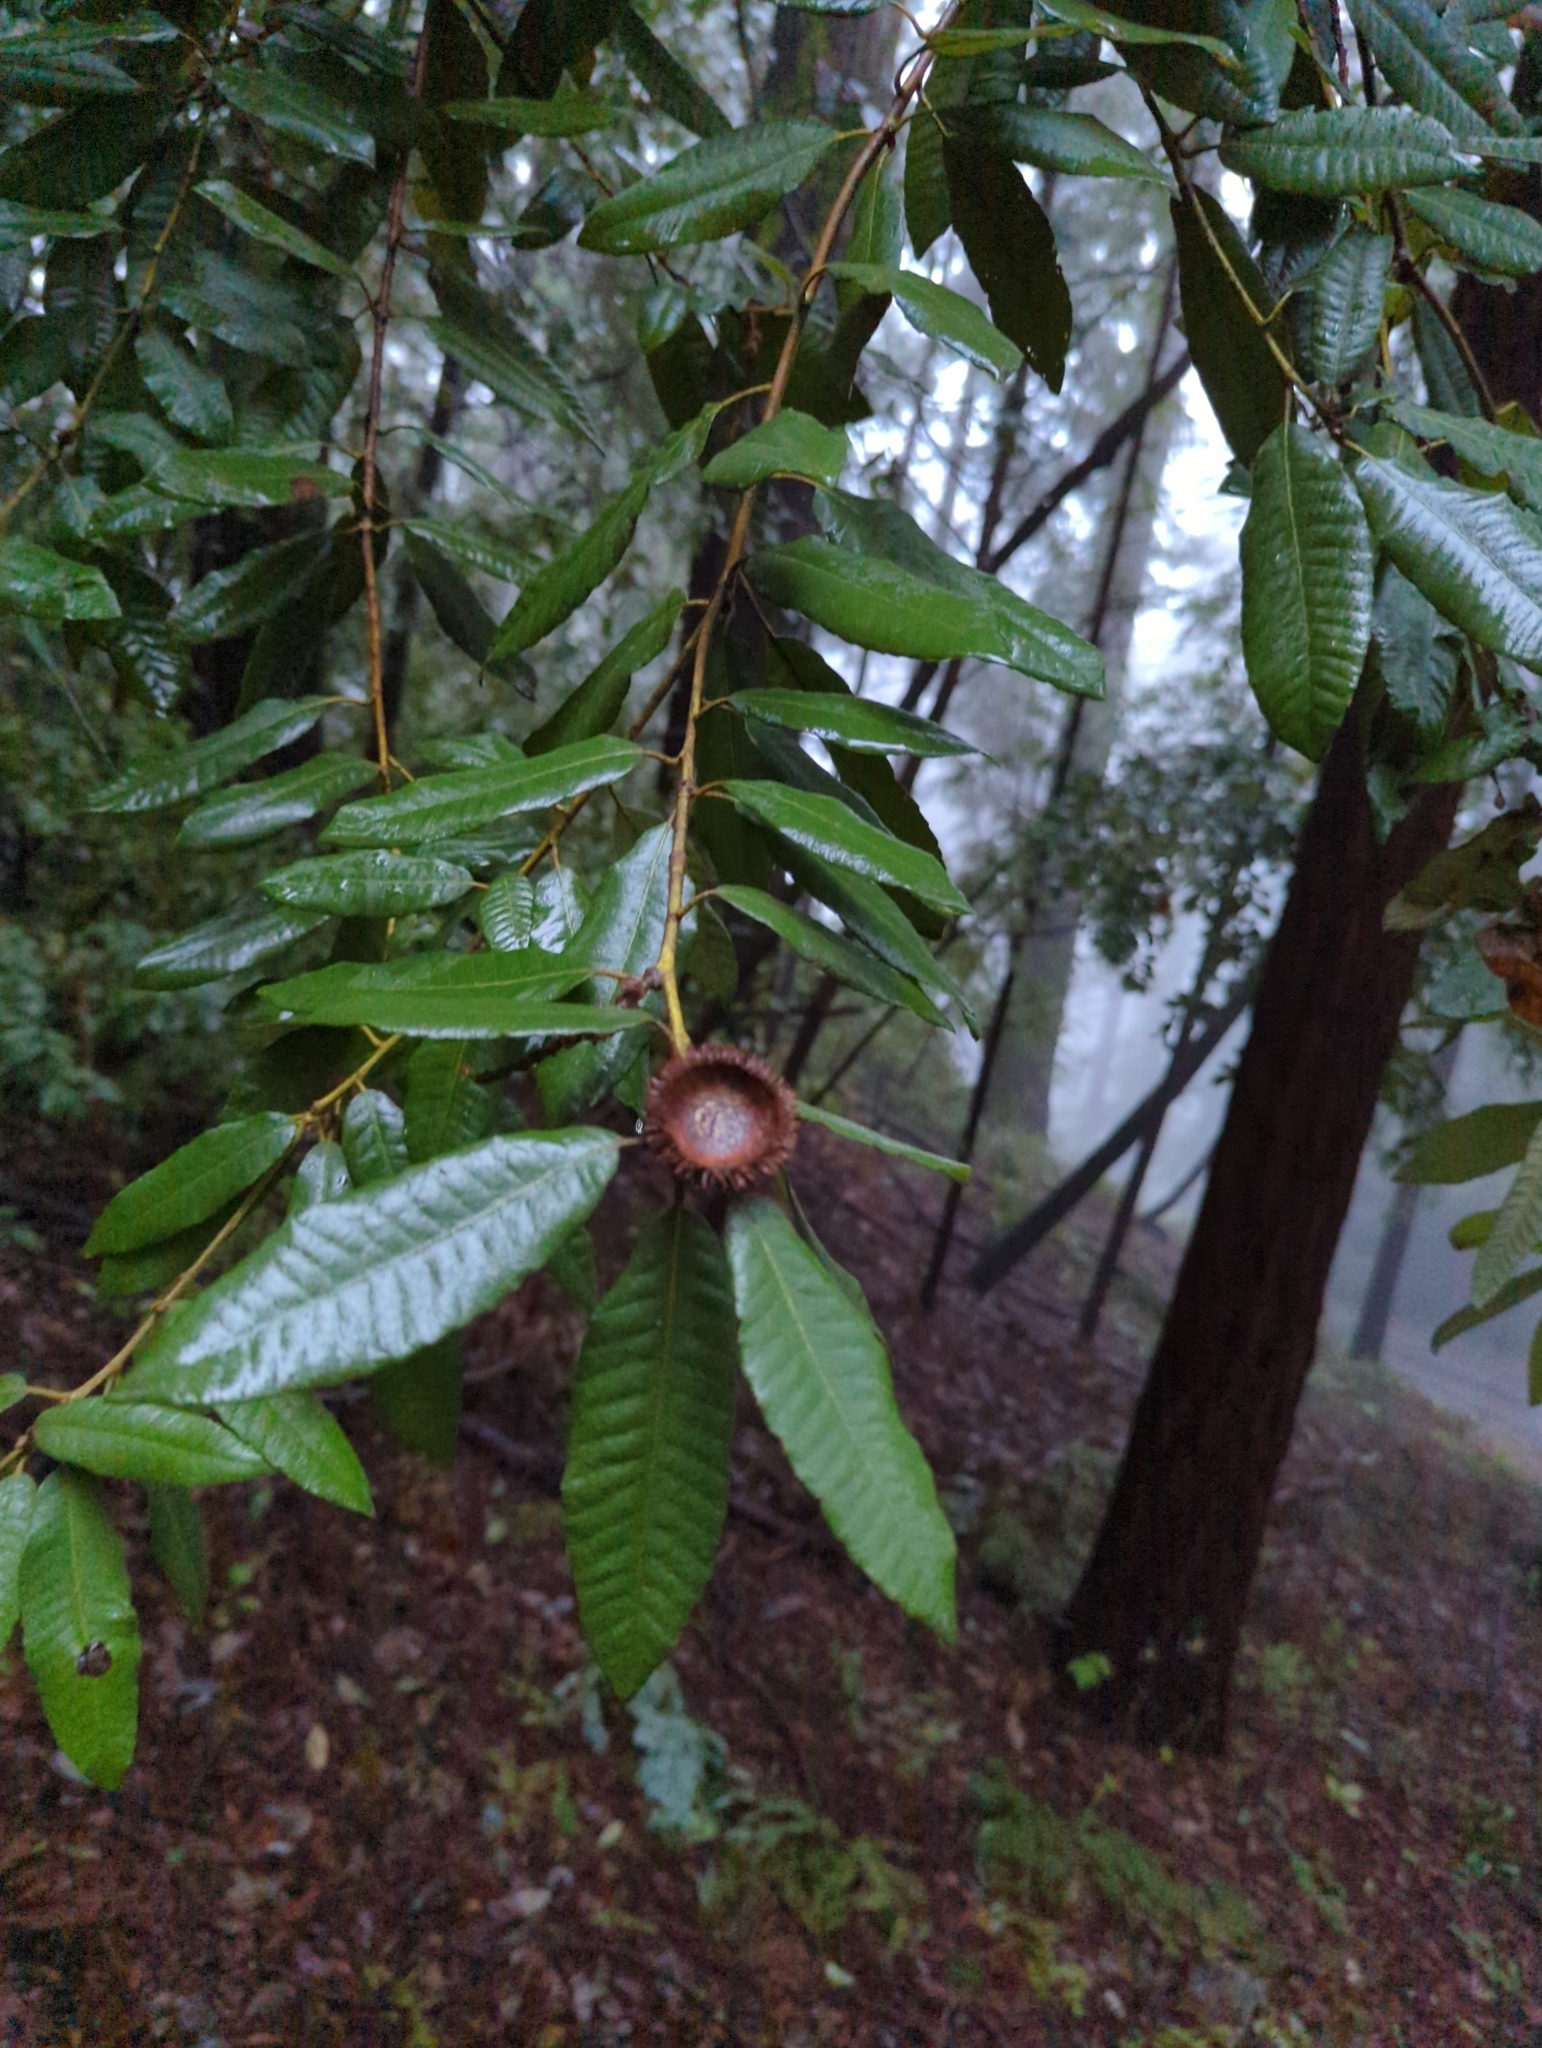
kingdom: Plantae
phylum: Tracheophyta
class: Magnoliopsida
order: Fagales
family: Fagaceae
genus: Notholithocarpus
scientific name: Notholithocarpus densiflorus
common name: Tan bark oak
